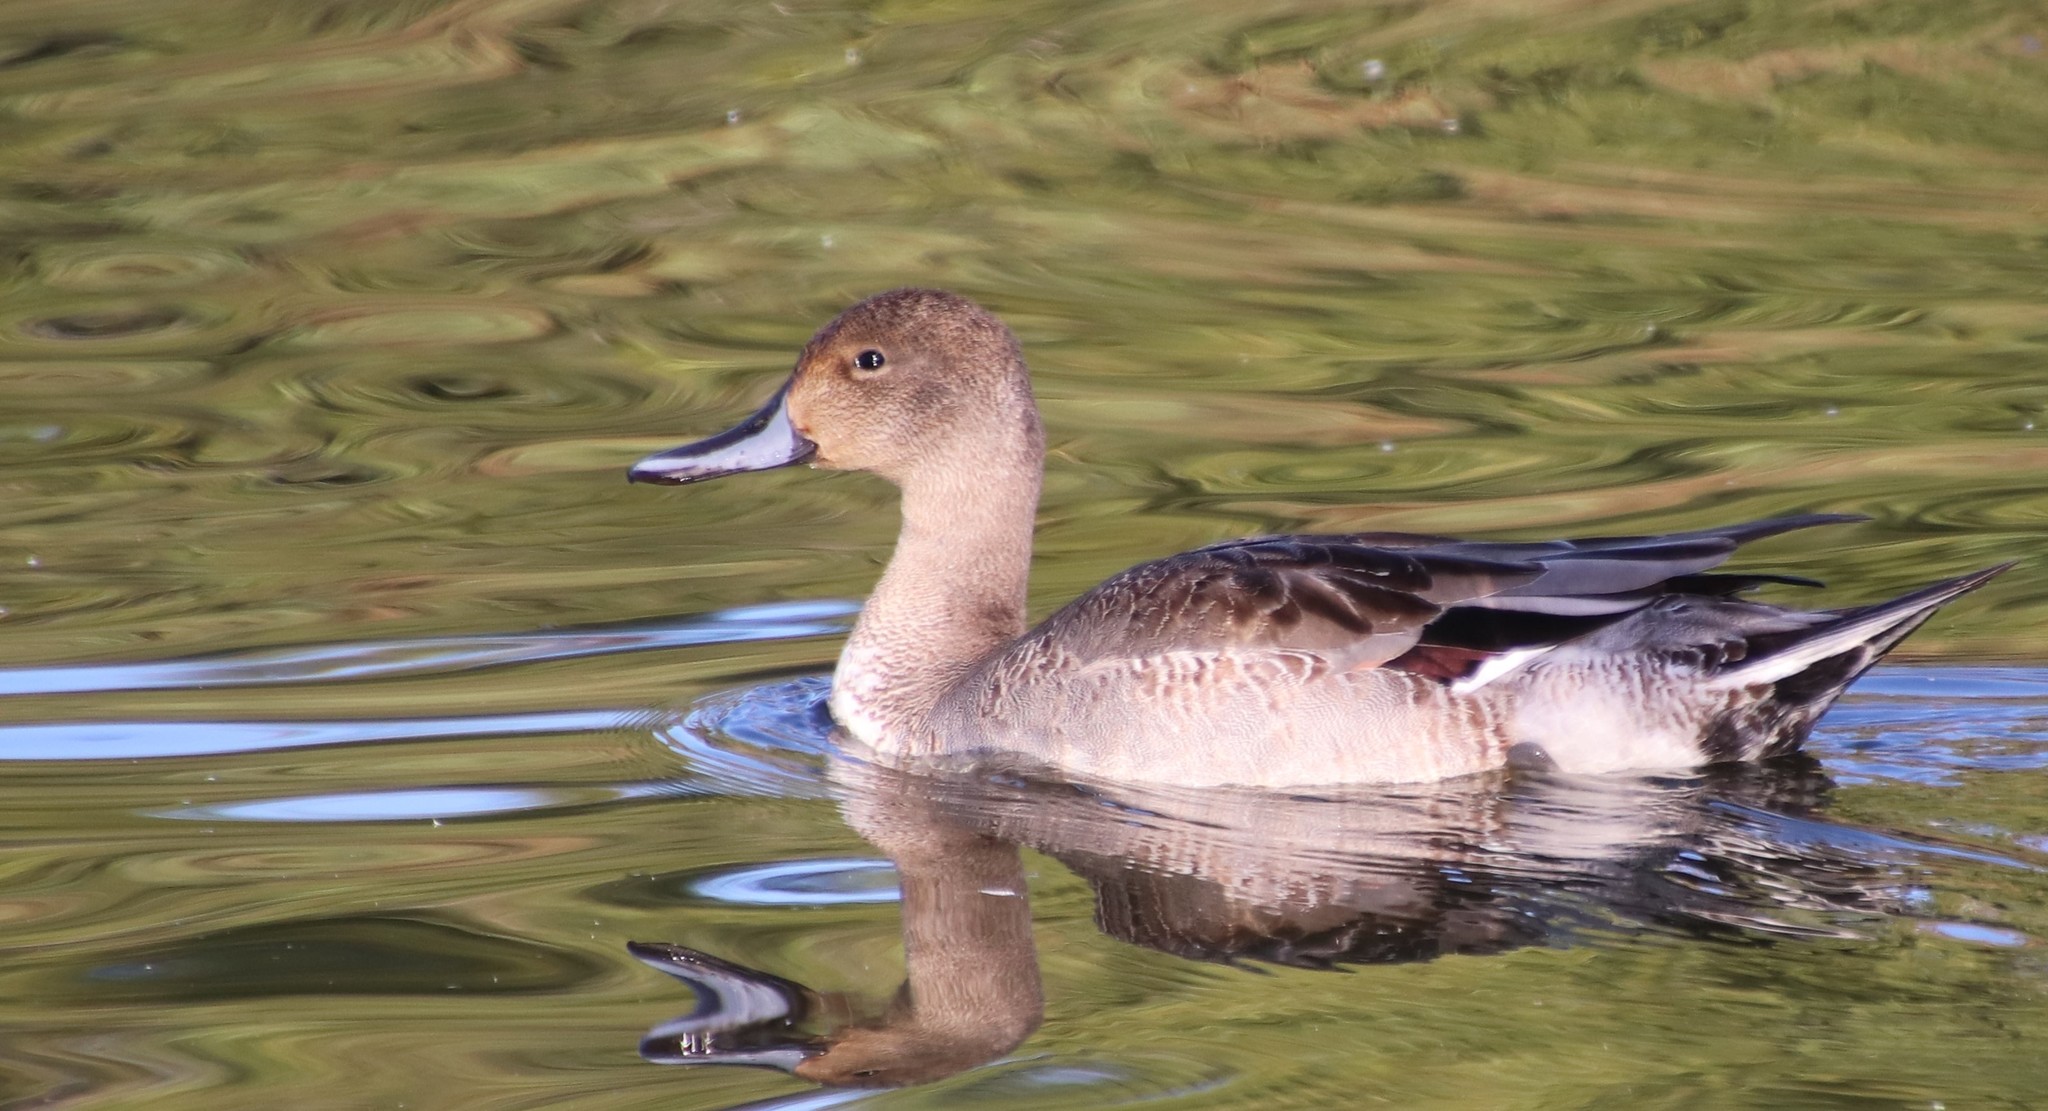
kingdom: Animalia
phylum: Chordata
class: Aves
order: Anseriformes
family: Anatidae
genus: Anas
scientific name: Anas acuta
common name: Northern pintail
